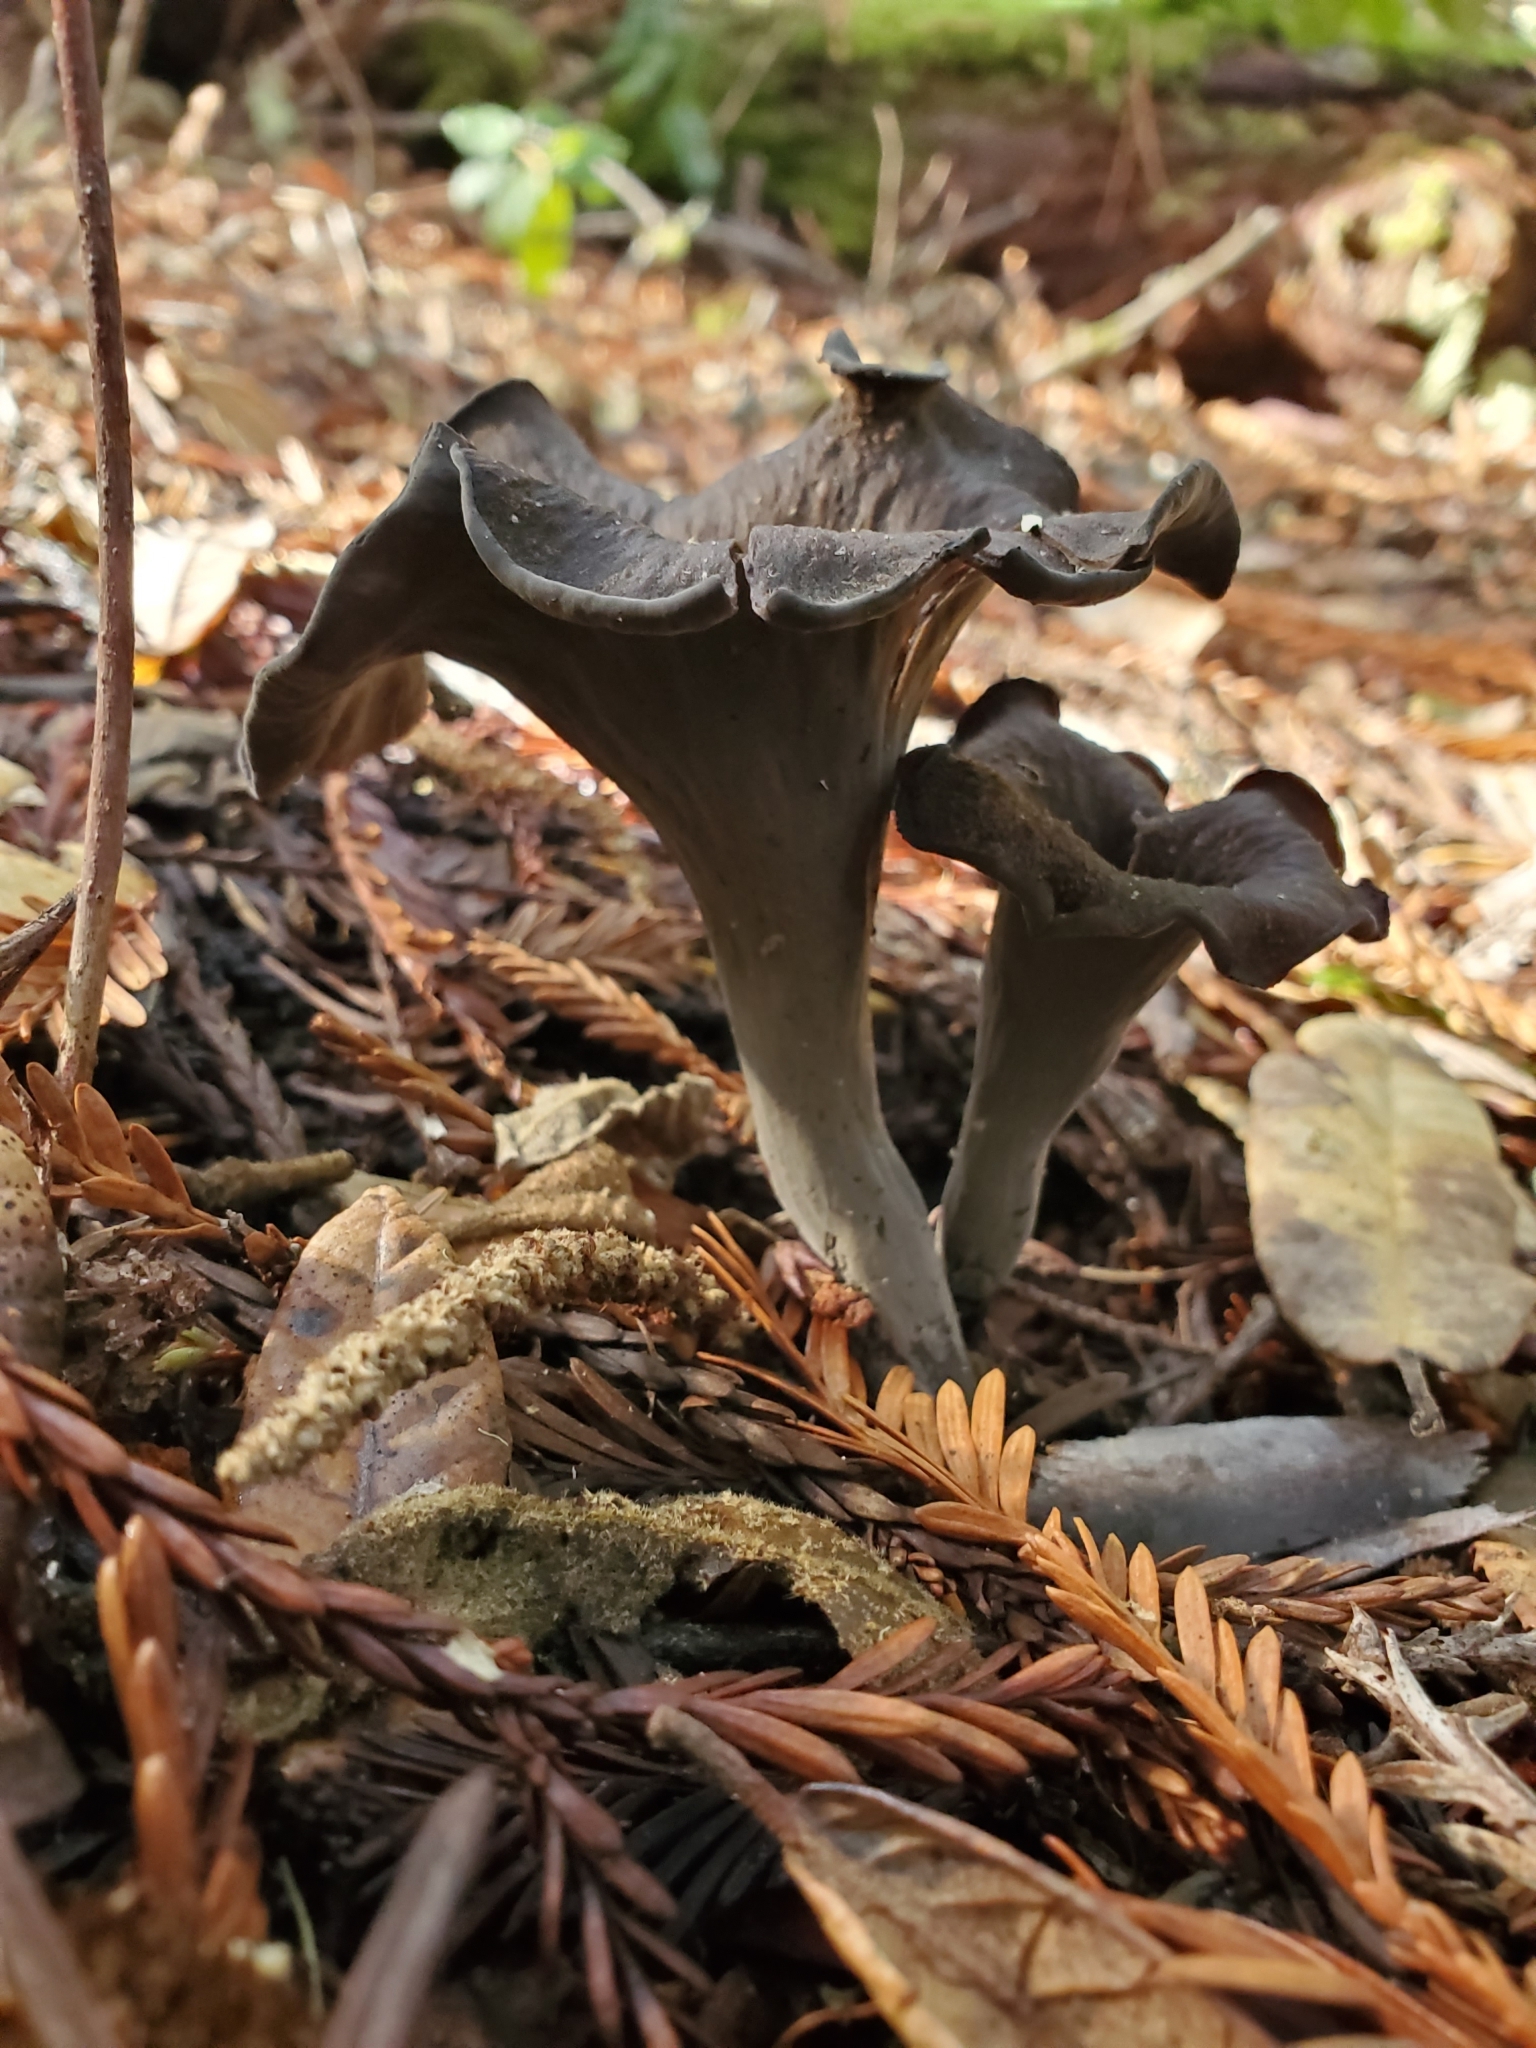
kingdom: Fungi
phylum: Basidiomycota
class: Agaricomycetes
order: Cantharellales
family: Hydnaceae
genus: Craterellus
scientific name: Craterellus calicornucopioides
